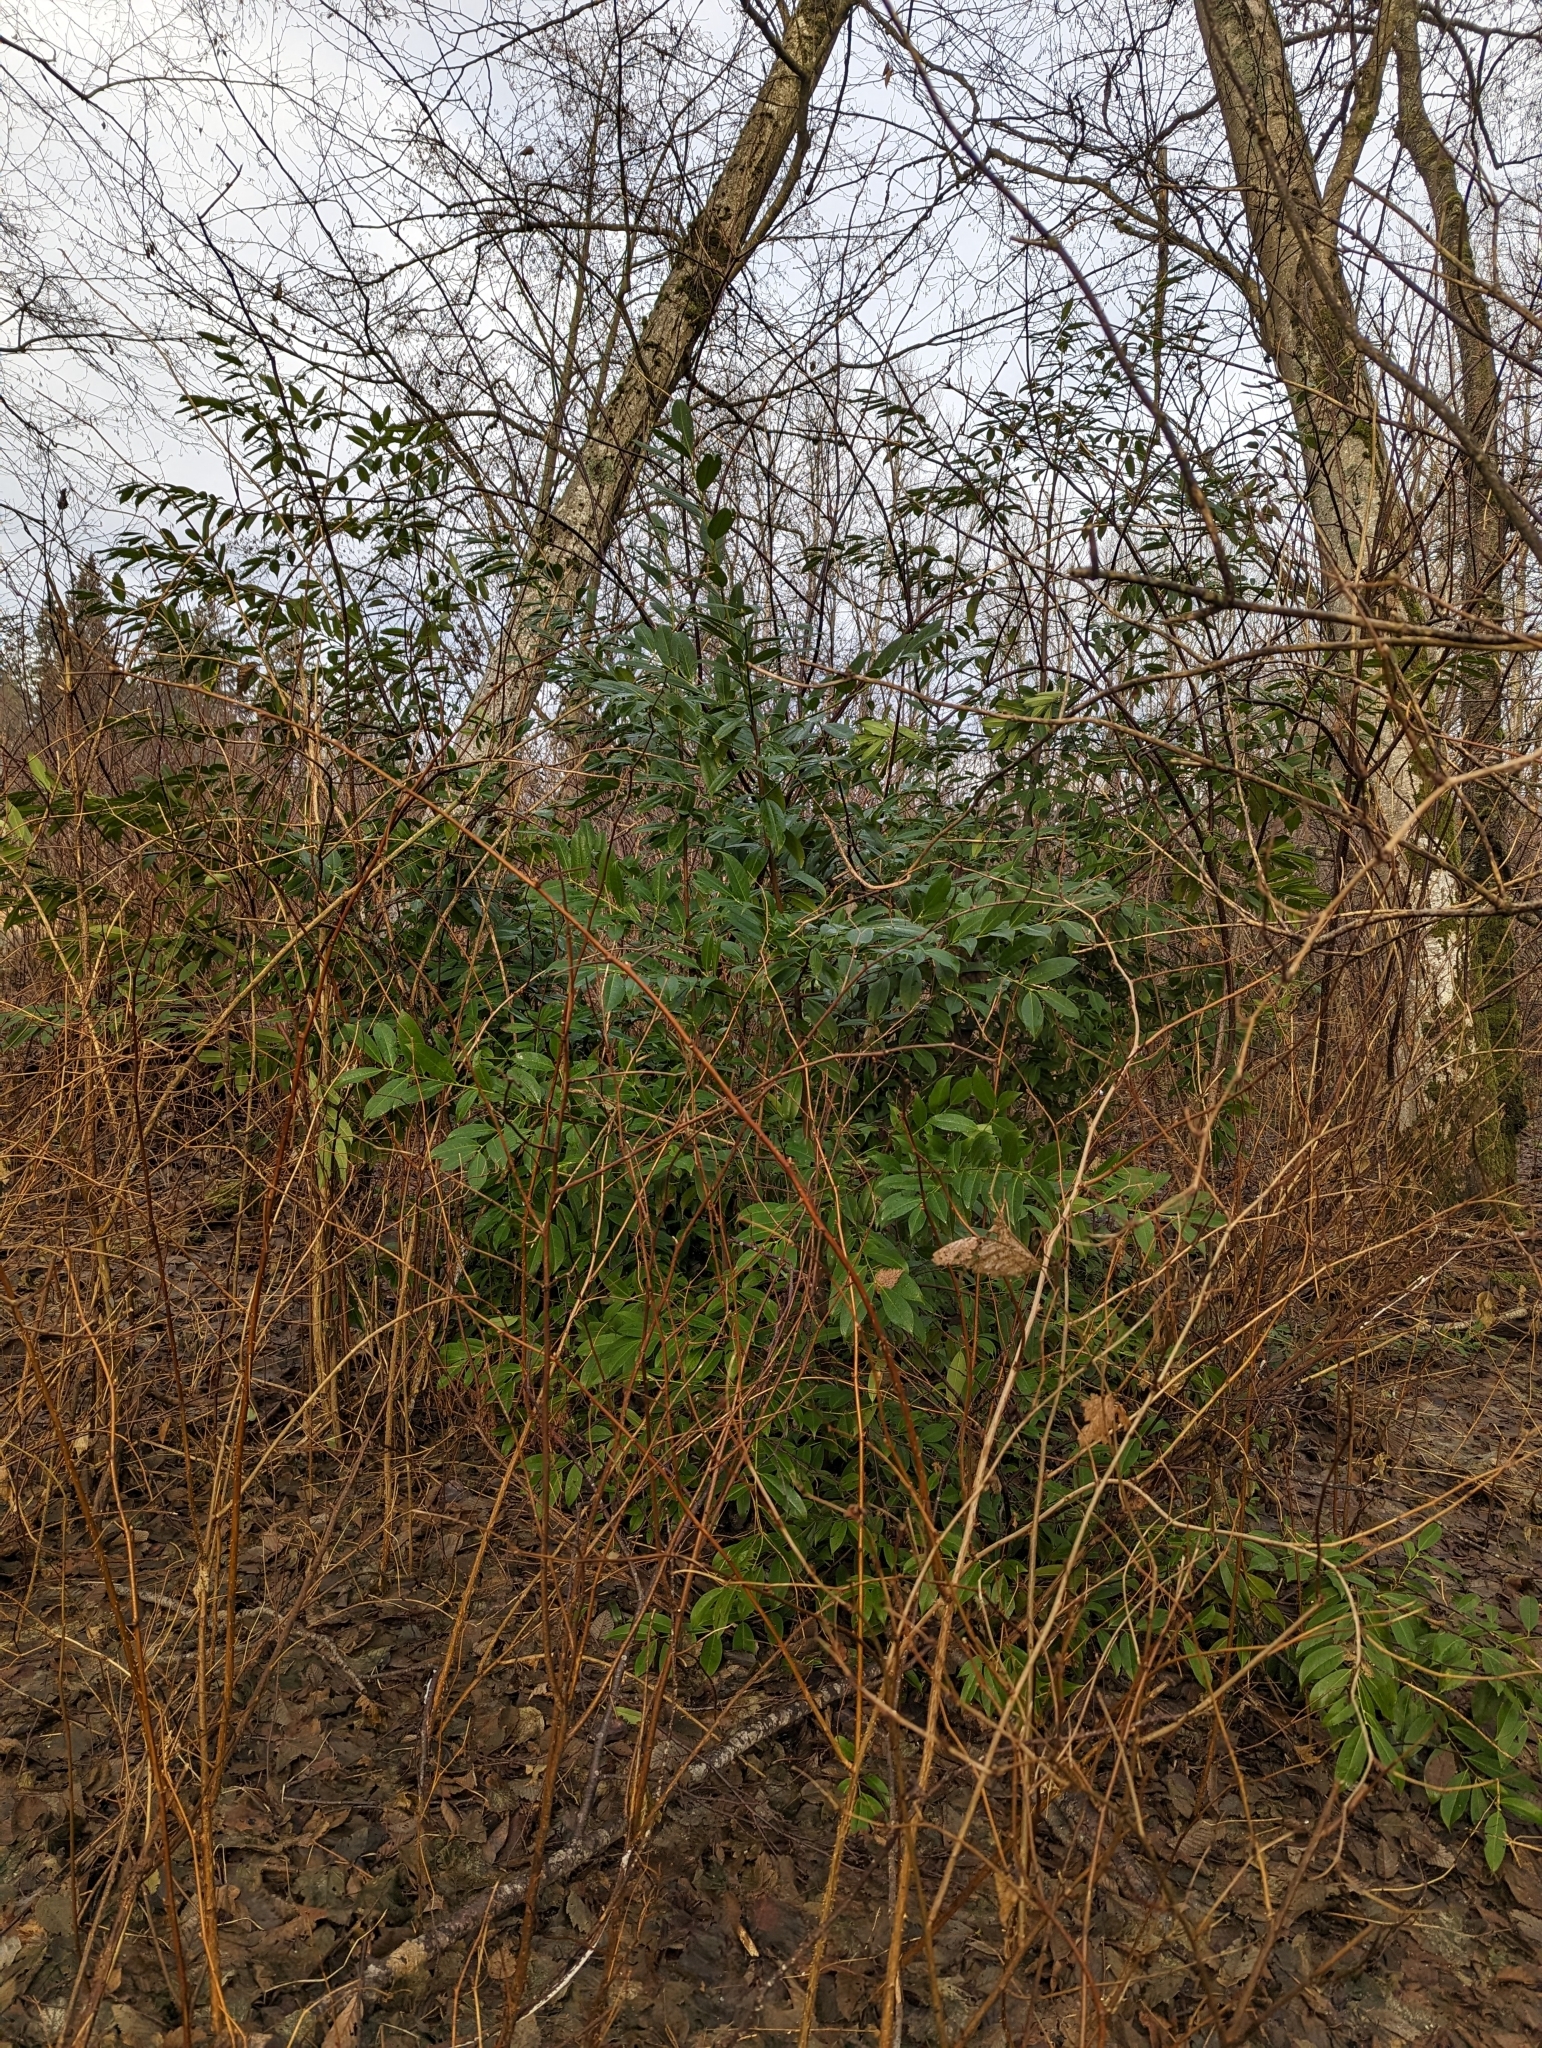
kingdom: Plantae
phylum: Tracheophyta
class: Magnoliopsida
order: Rosales
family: Rosaceae
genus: Prunus
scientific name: Prunus laurocerasus
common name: Cherry laurel
